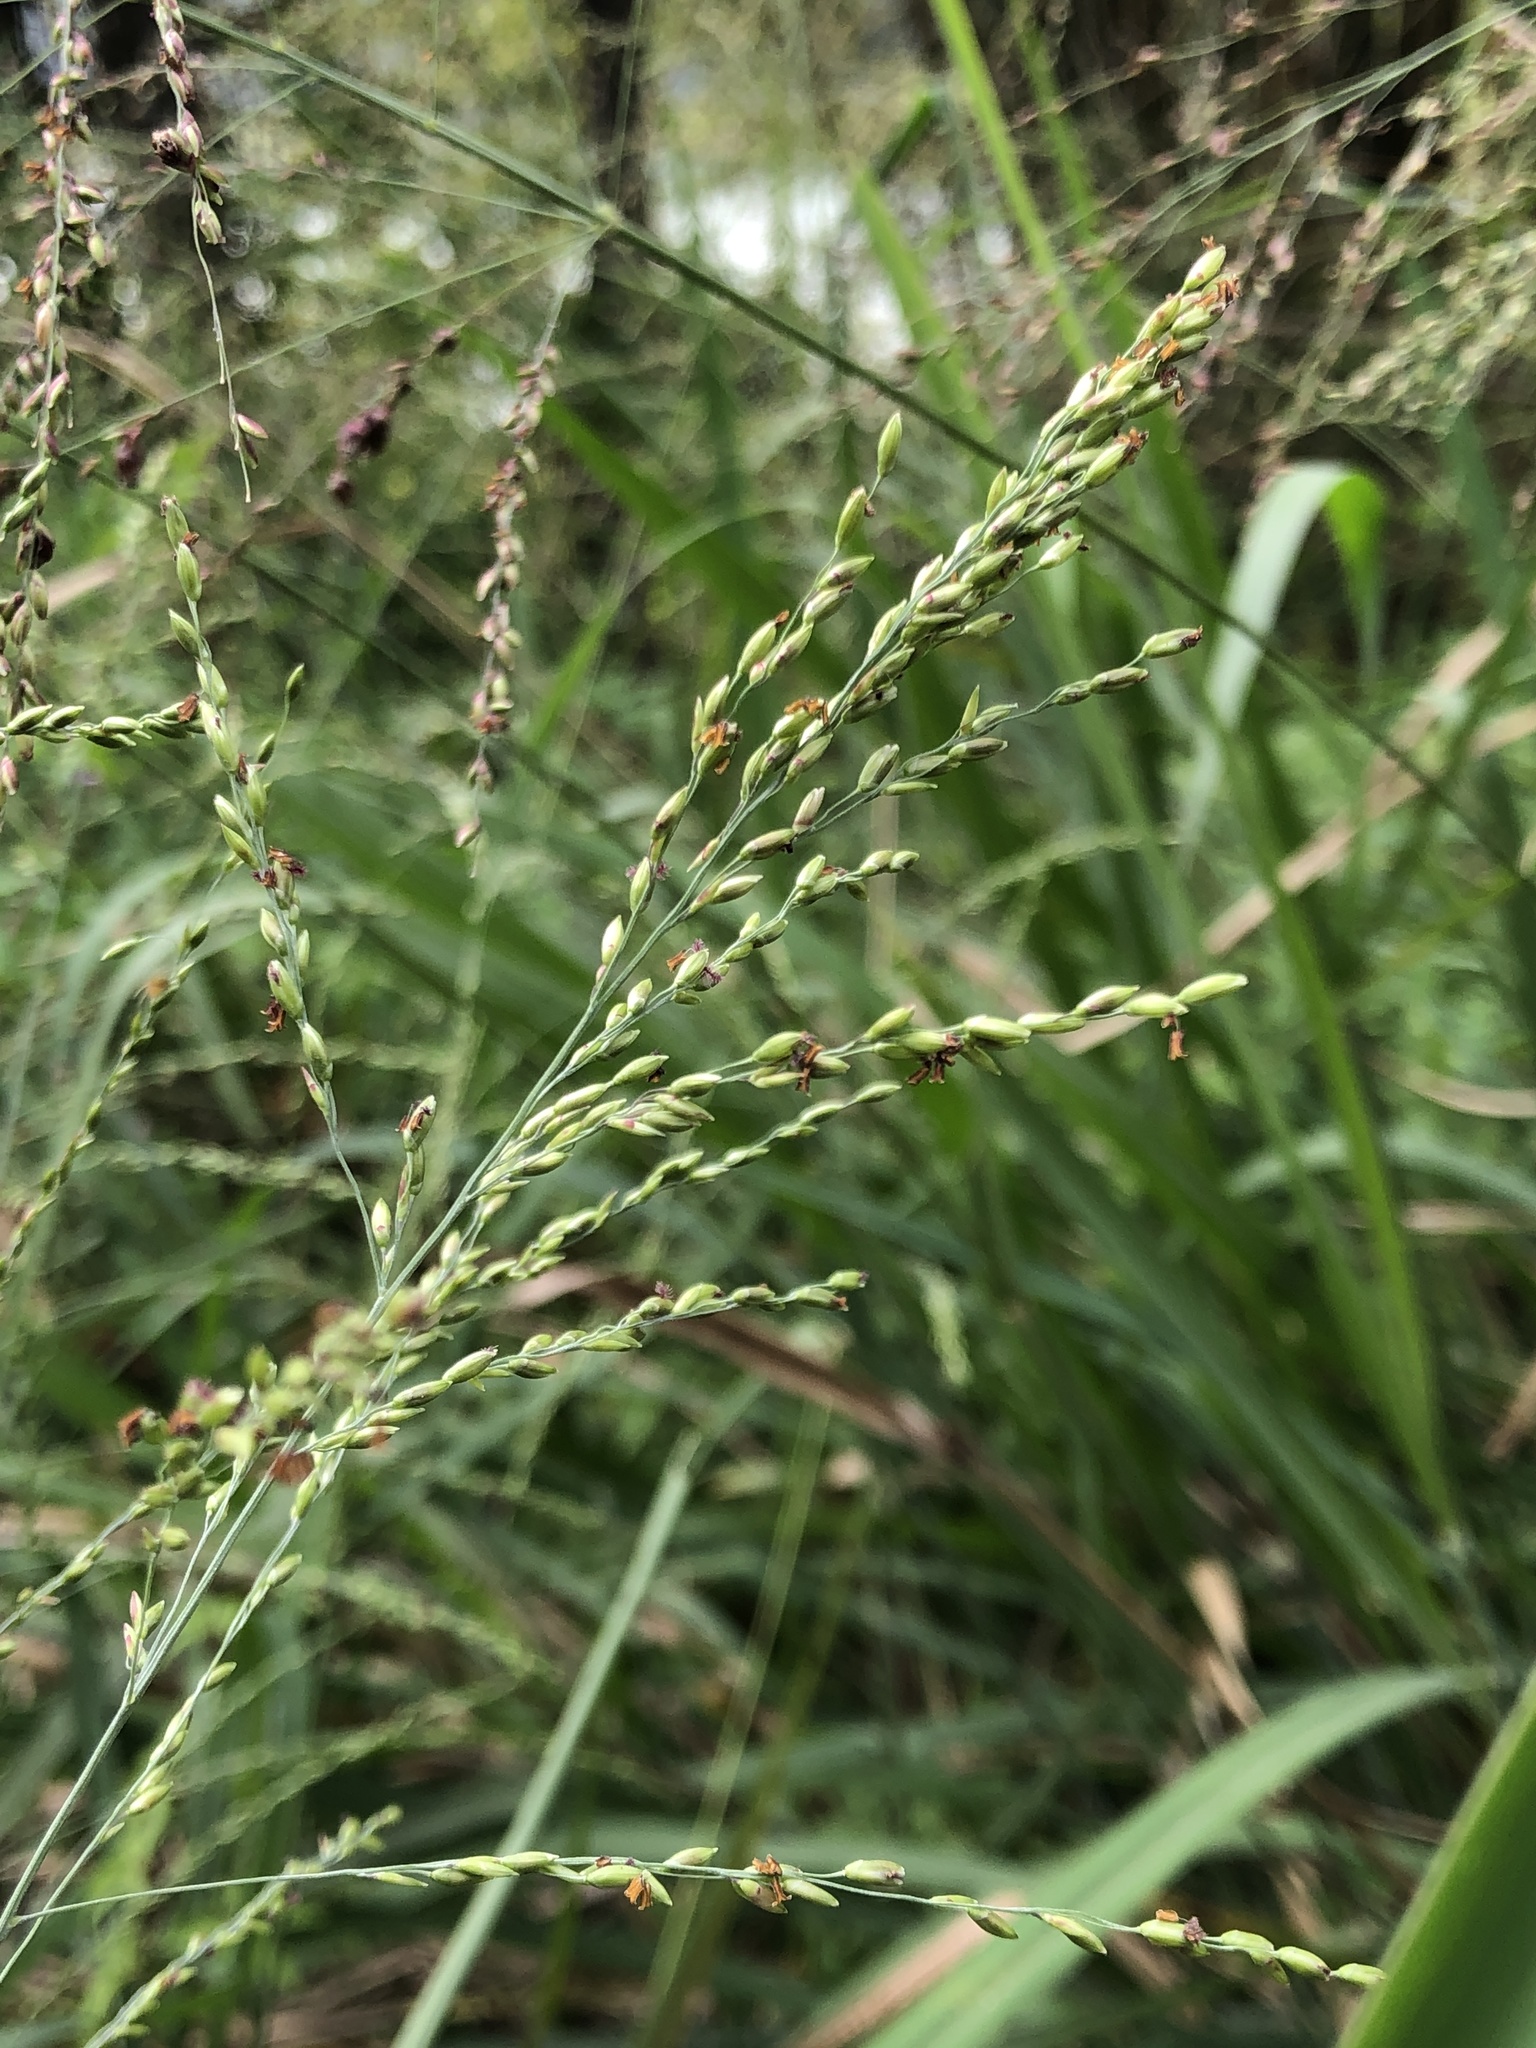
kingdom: Plantae
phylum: Tracheophyta
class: Liliopsida
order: Poales
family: Poaceae
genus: Megathyrsus
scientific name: Megathyrsus maximus
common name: Guineagrass
